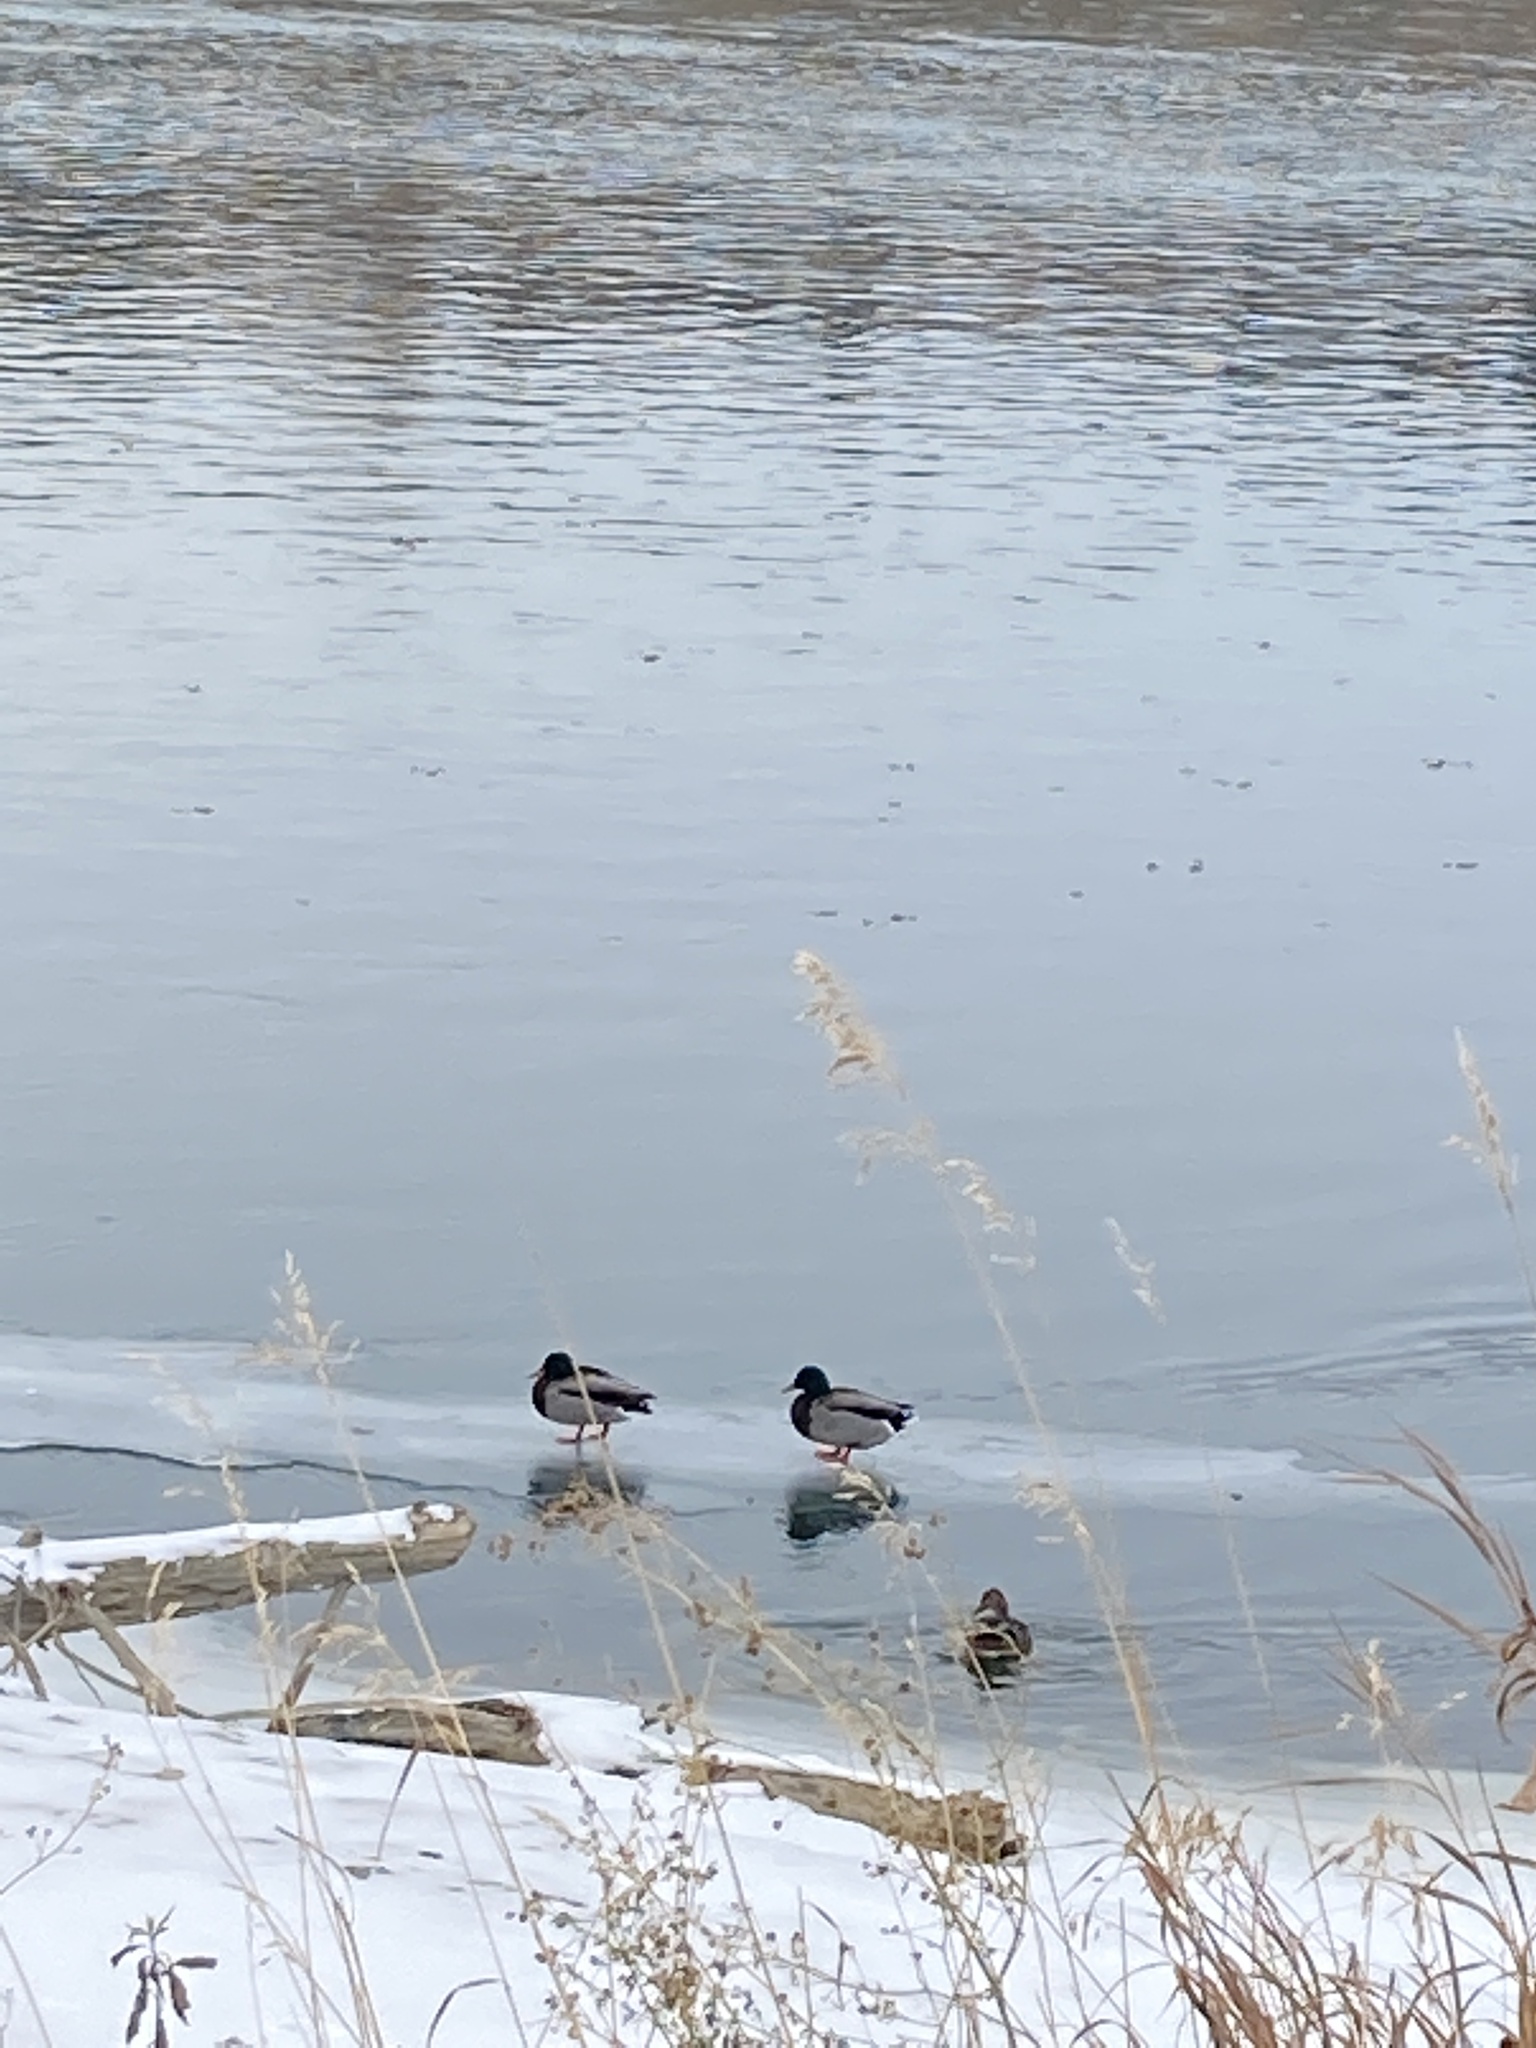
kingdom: Animalia
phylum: Chordata
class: Aves
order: Anseriformes
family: Anatidae
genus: Anas
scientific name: Anas platyrhynchos
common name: Mallard
